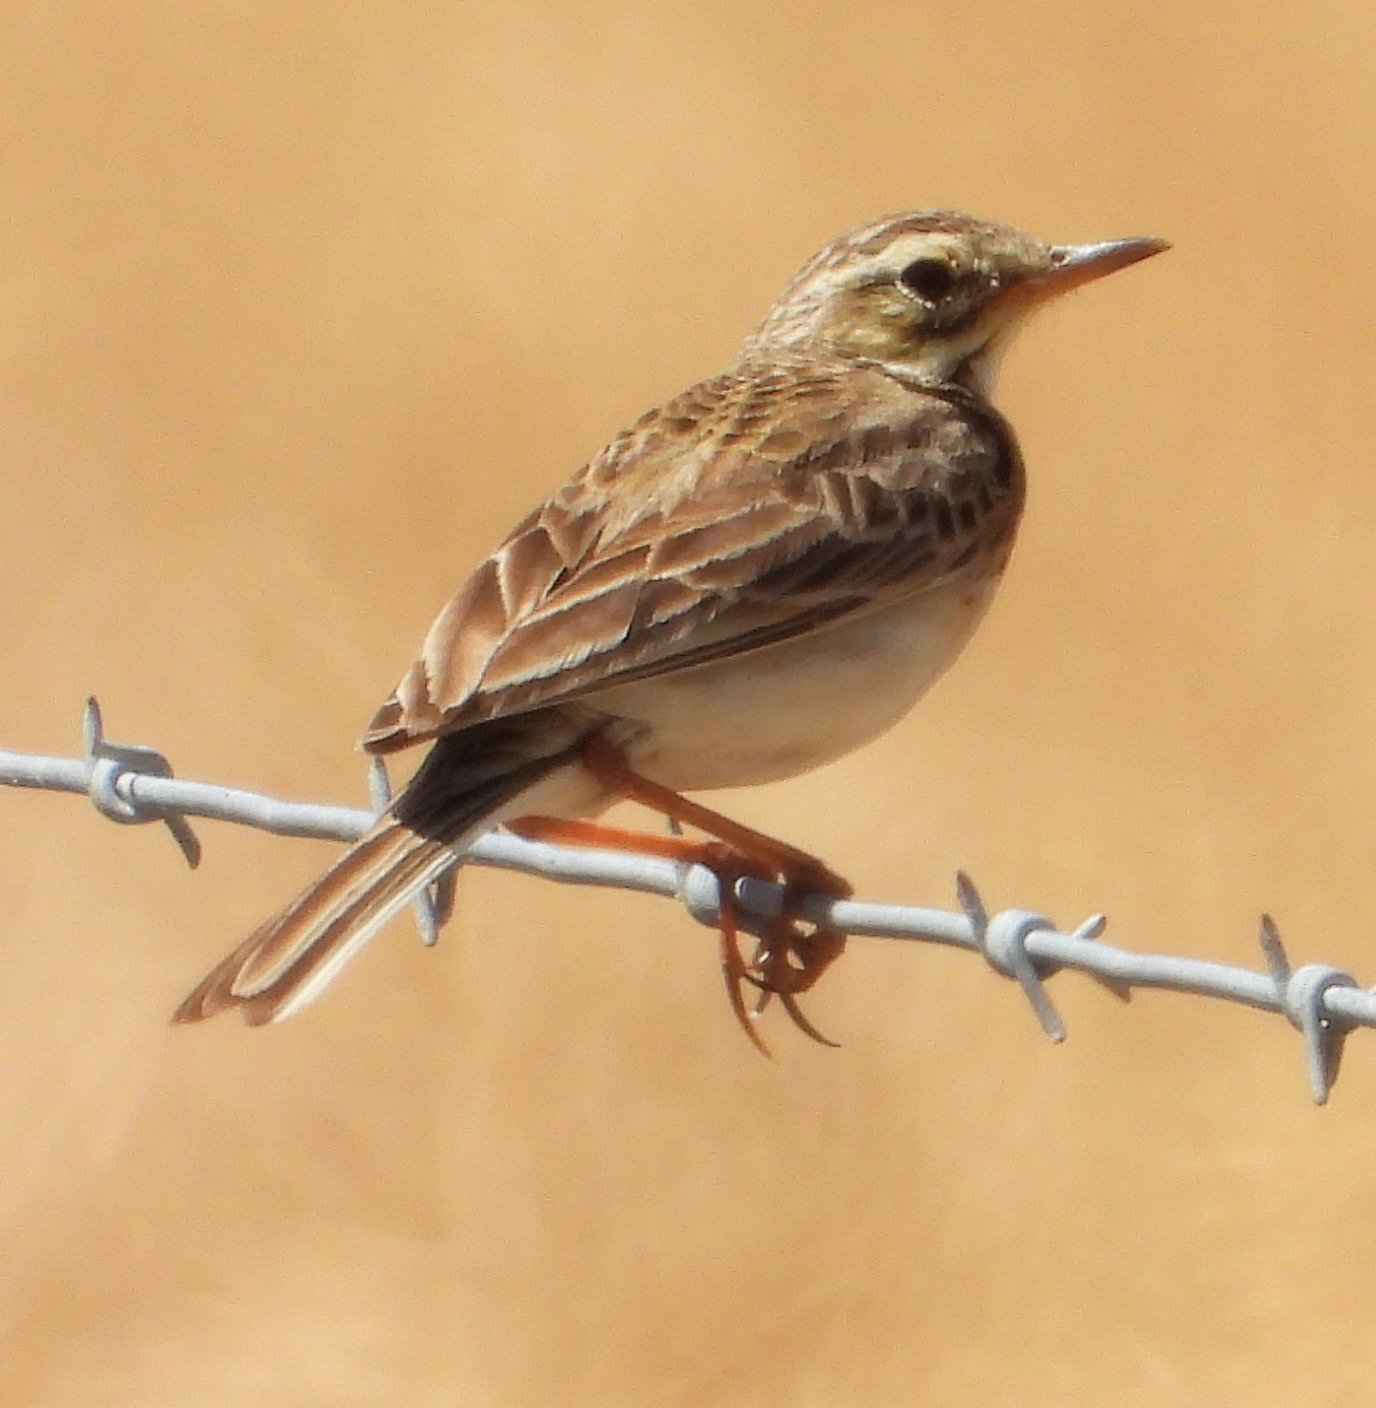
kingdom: Animalia
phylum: Chordata
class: Aves
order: Passeriformes
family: Motacillidae
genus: Anthus
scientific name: Anthus cinnamomeus
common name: African pipit
